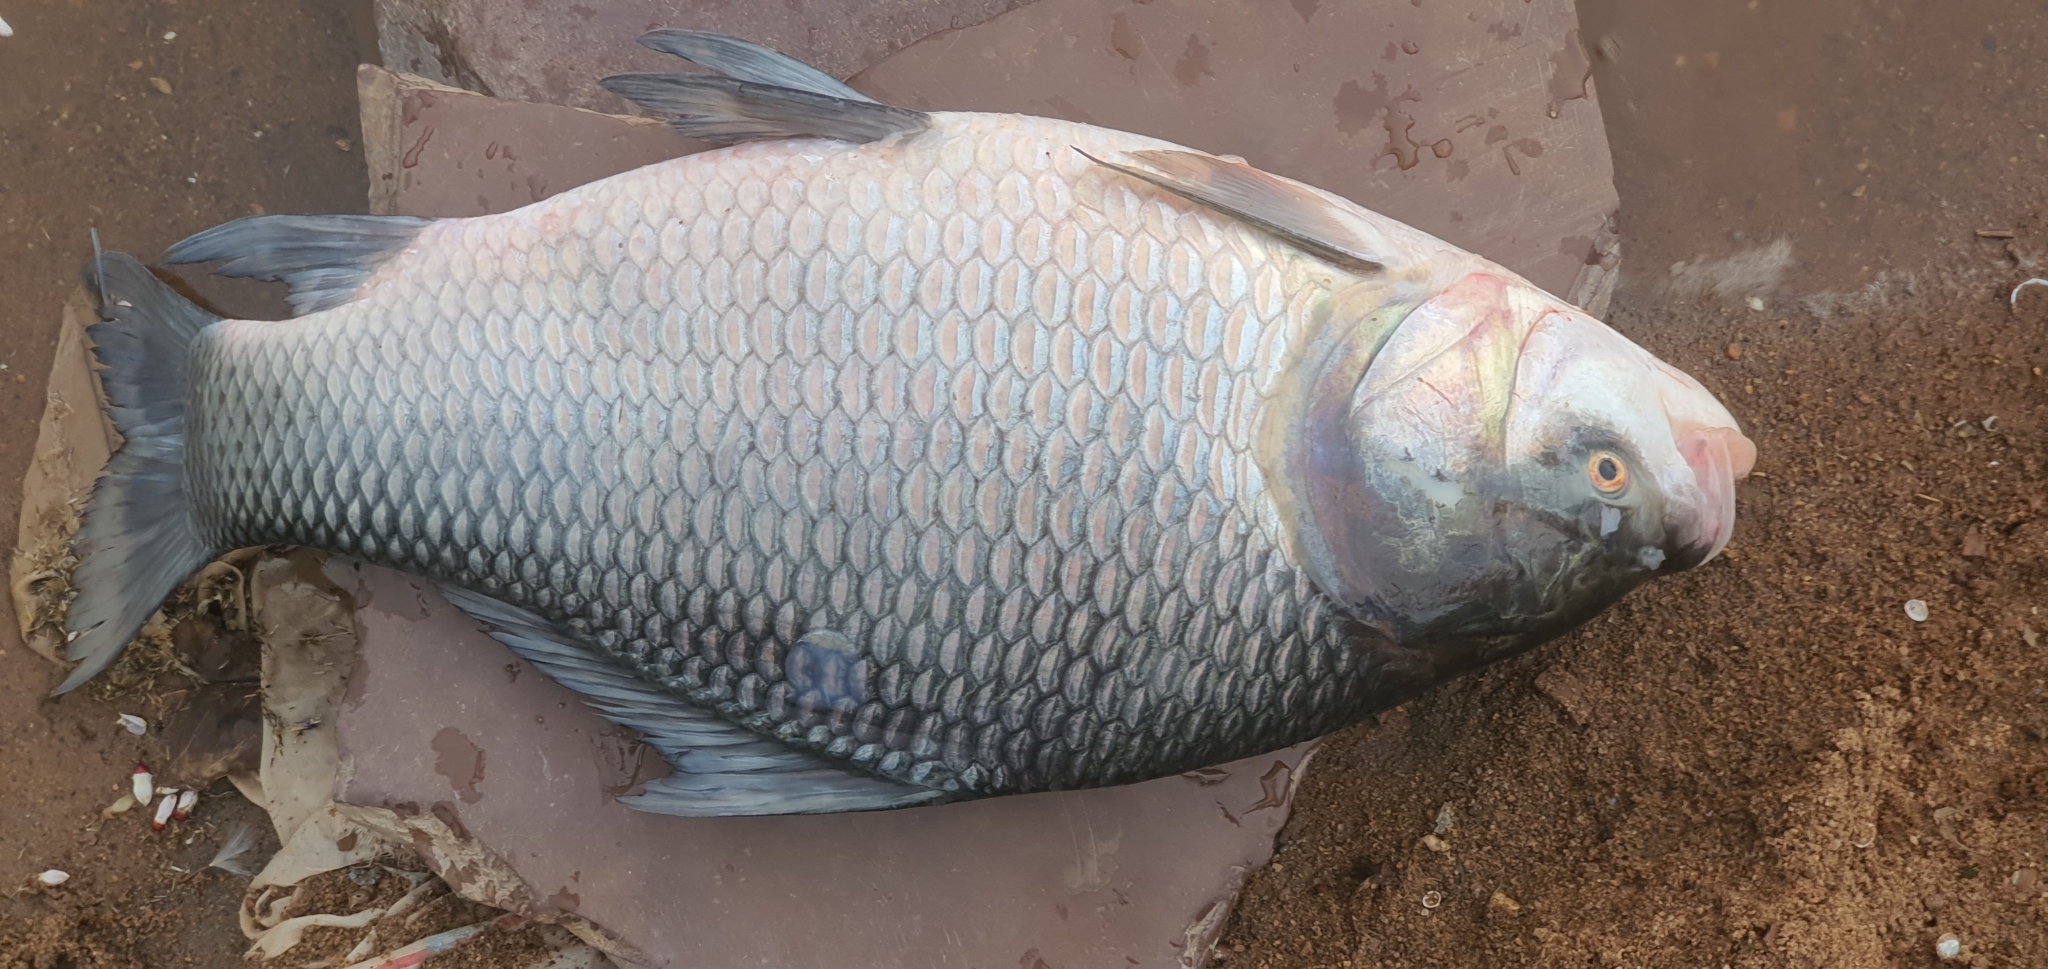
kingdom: Animalia
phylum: Chordata
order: Cypriniformes
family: Cyprinidae
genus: Gibelion
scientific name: Gibelion catla
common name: Catla
